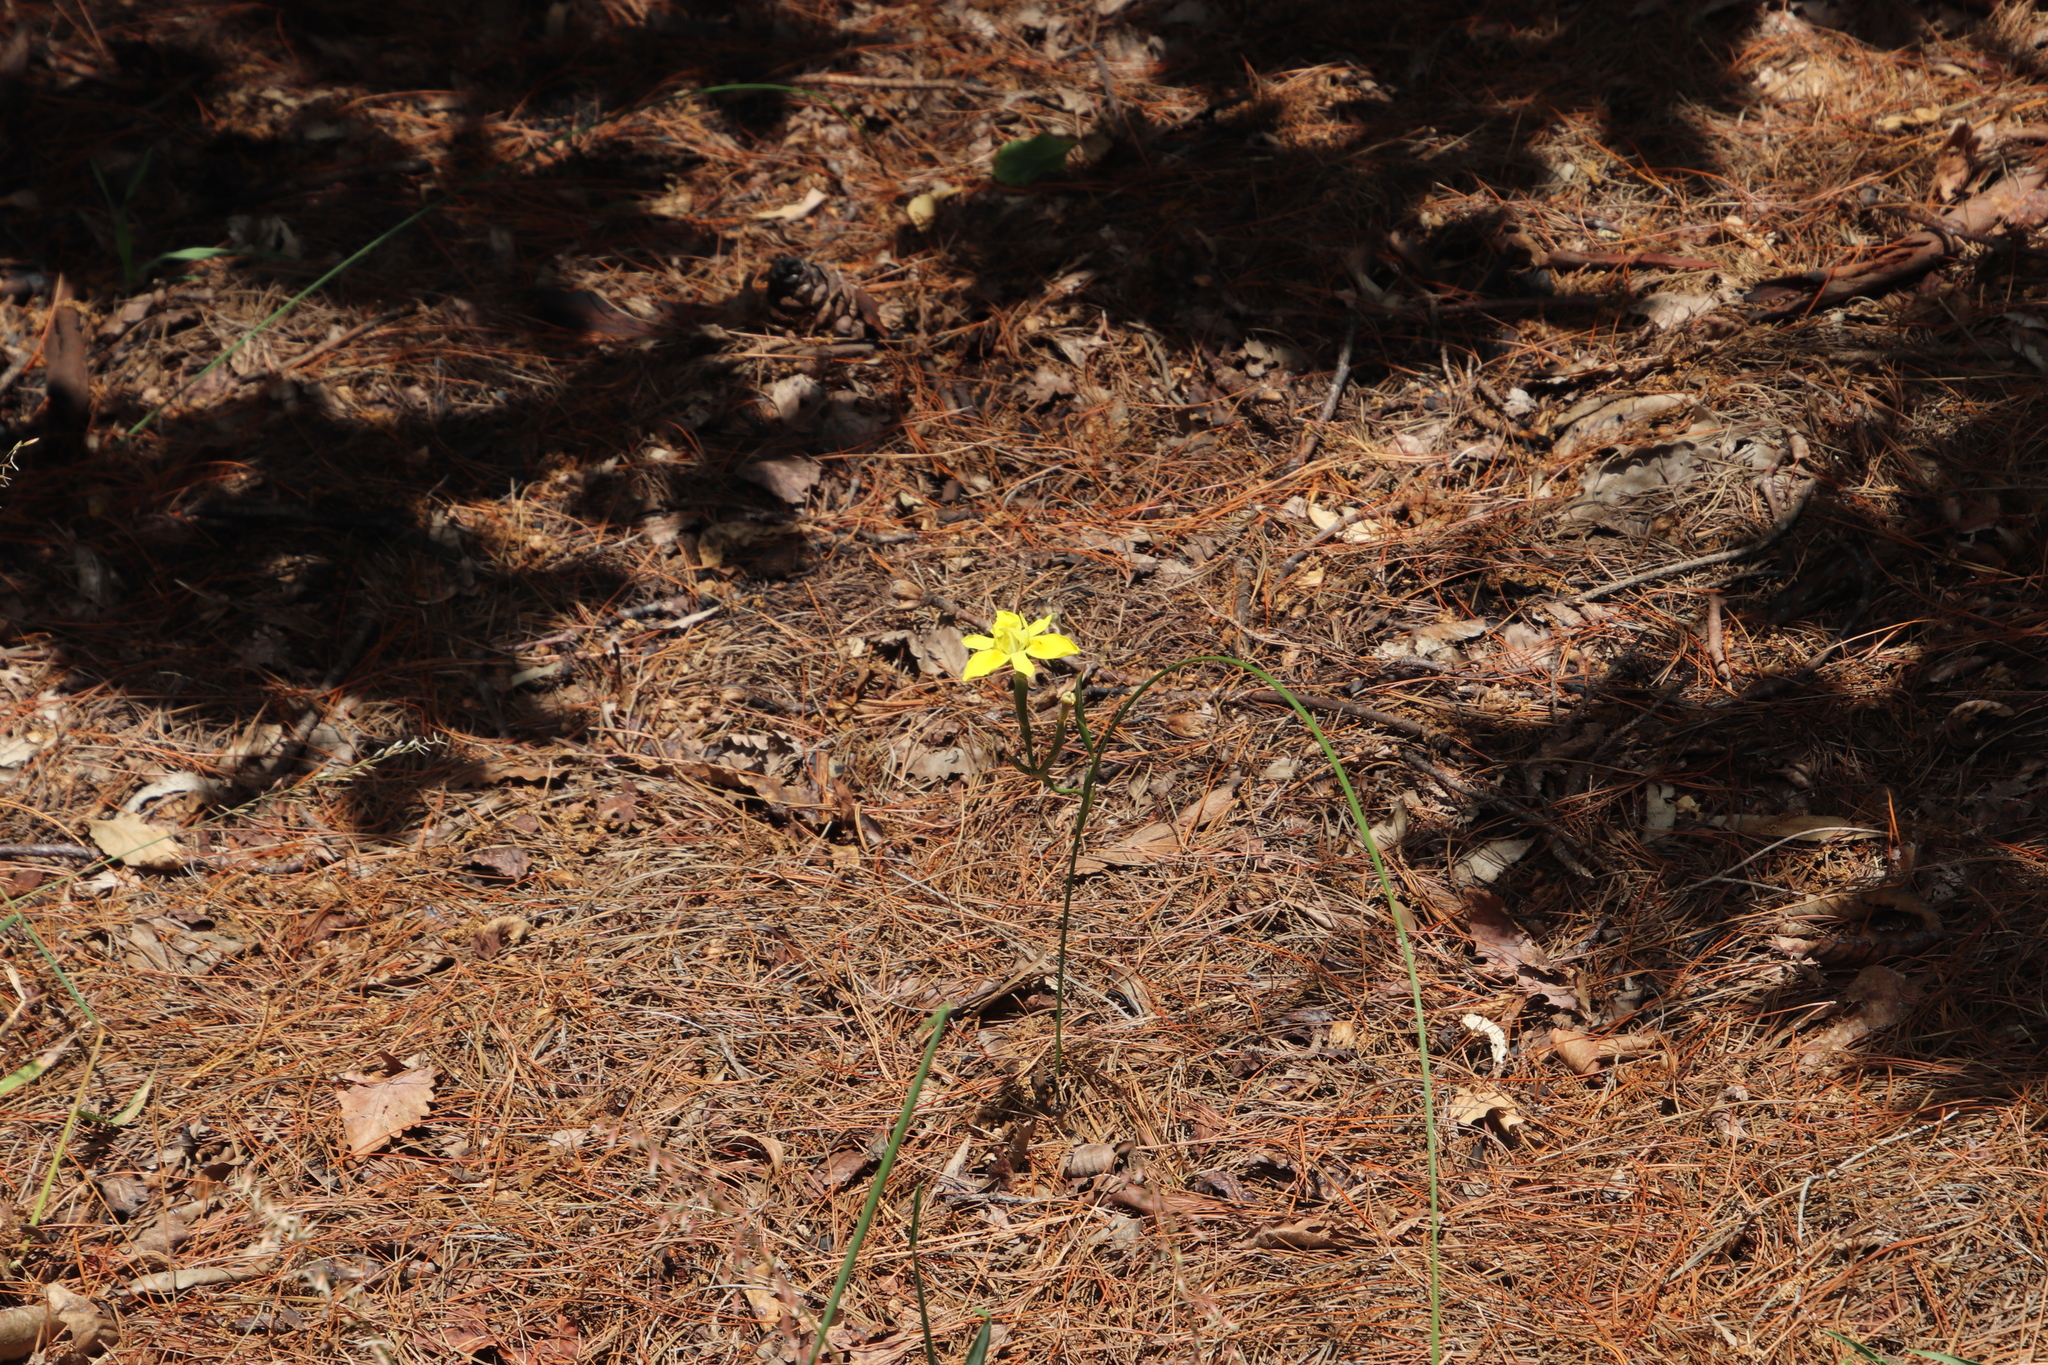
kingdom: Plantae
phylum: Tracheophyta
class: Liliopsida
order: Asparagales
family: Iridaceae
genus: Moraea
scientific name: Moraea fugax
